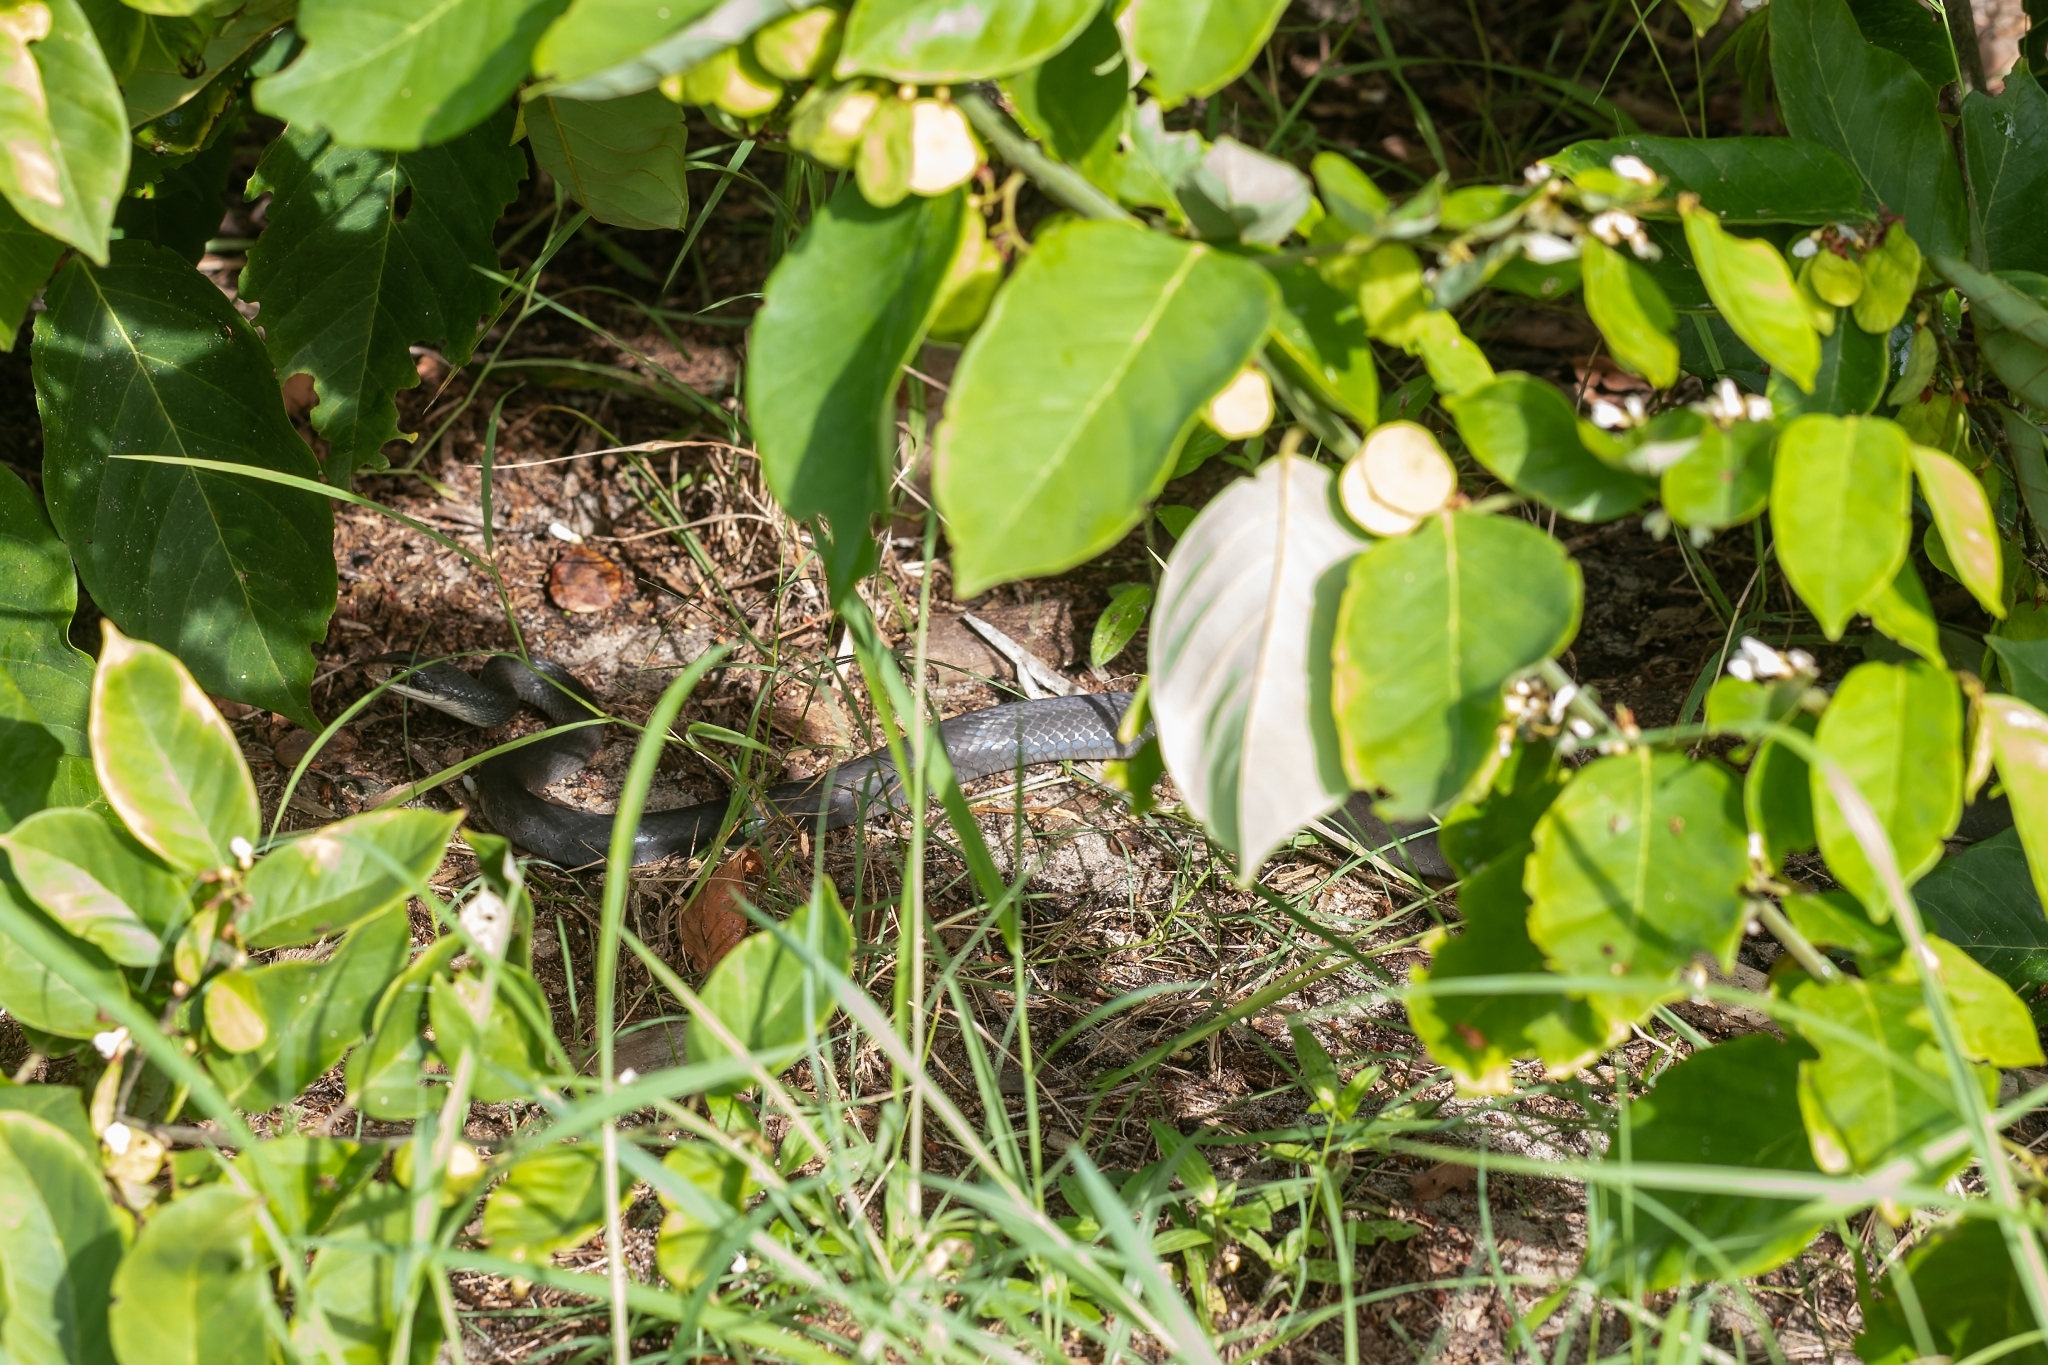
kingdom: Animalia
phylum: Chordata
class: Squamata
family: Colubridae
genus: Coluber
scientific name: Coluber constrictor
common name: Eastern racer
